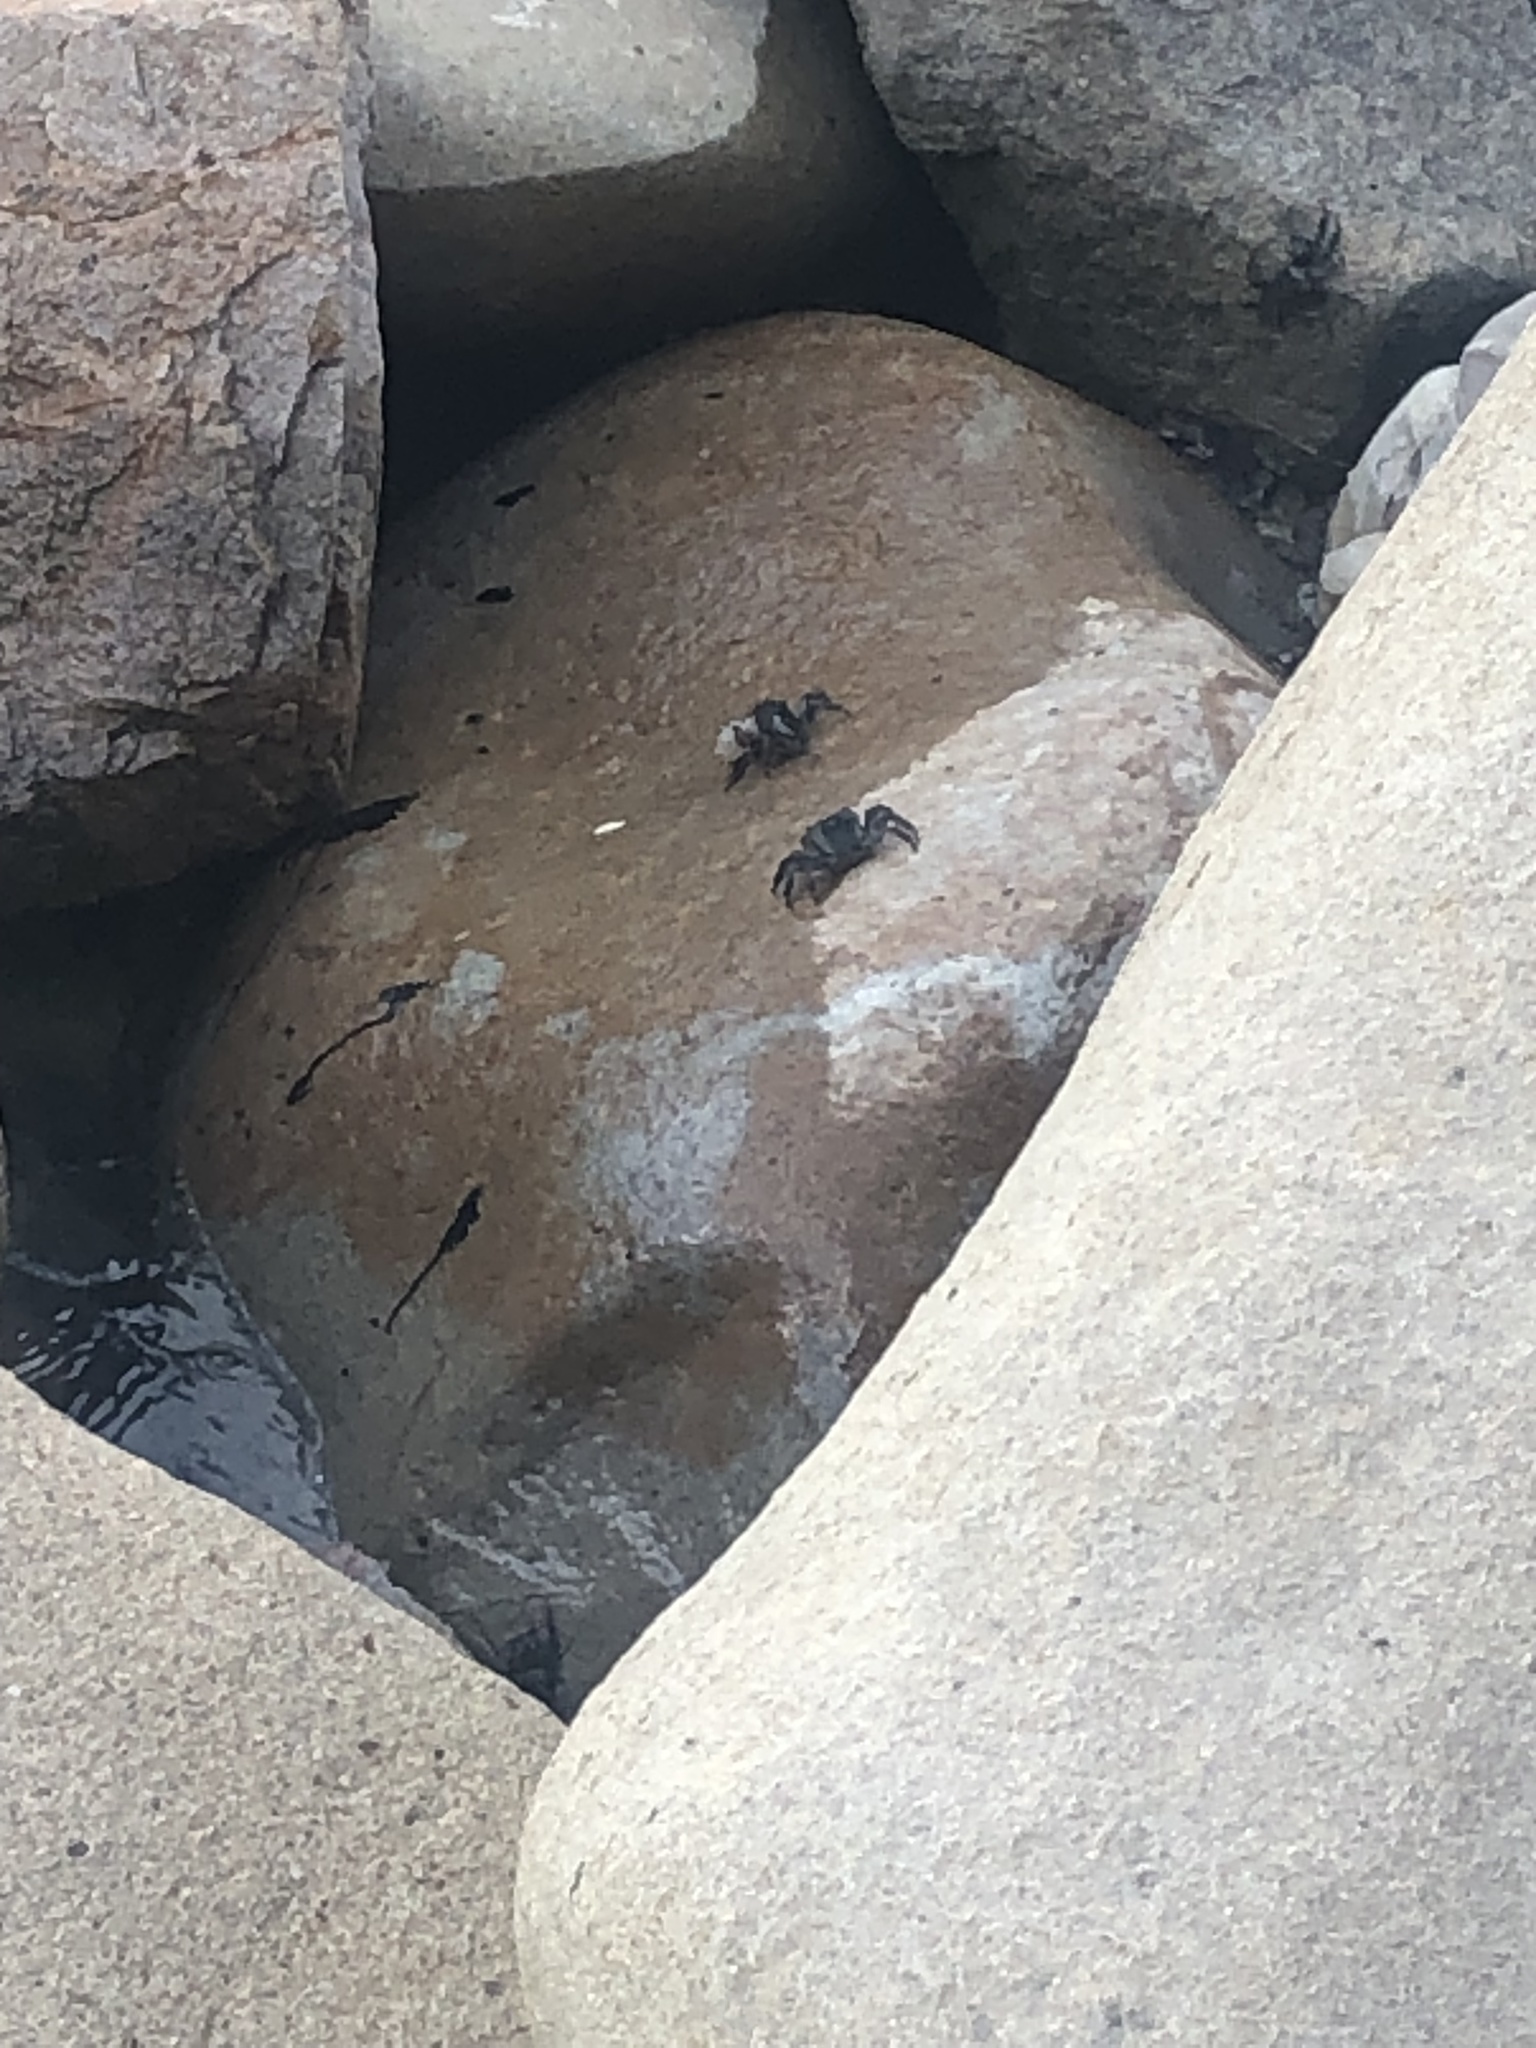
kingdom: Animalia
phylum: Arthropoda
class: Malacostraca
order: Decapoda
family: Grapsidae
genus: Pachygrapsus
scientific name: Pachygrapsus crassipes
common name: Striped shore crab
